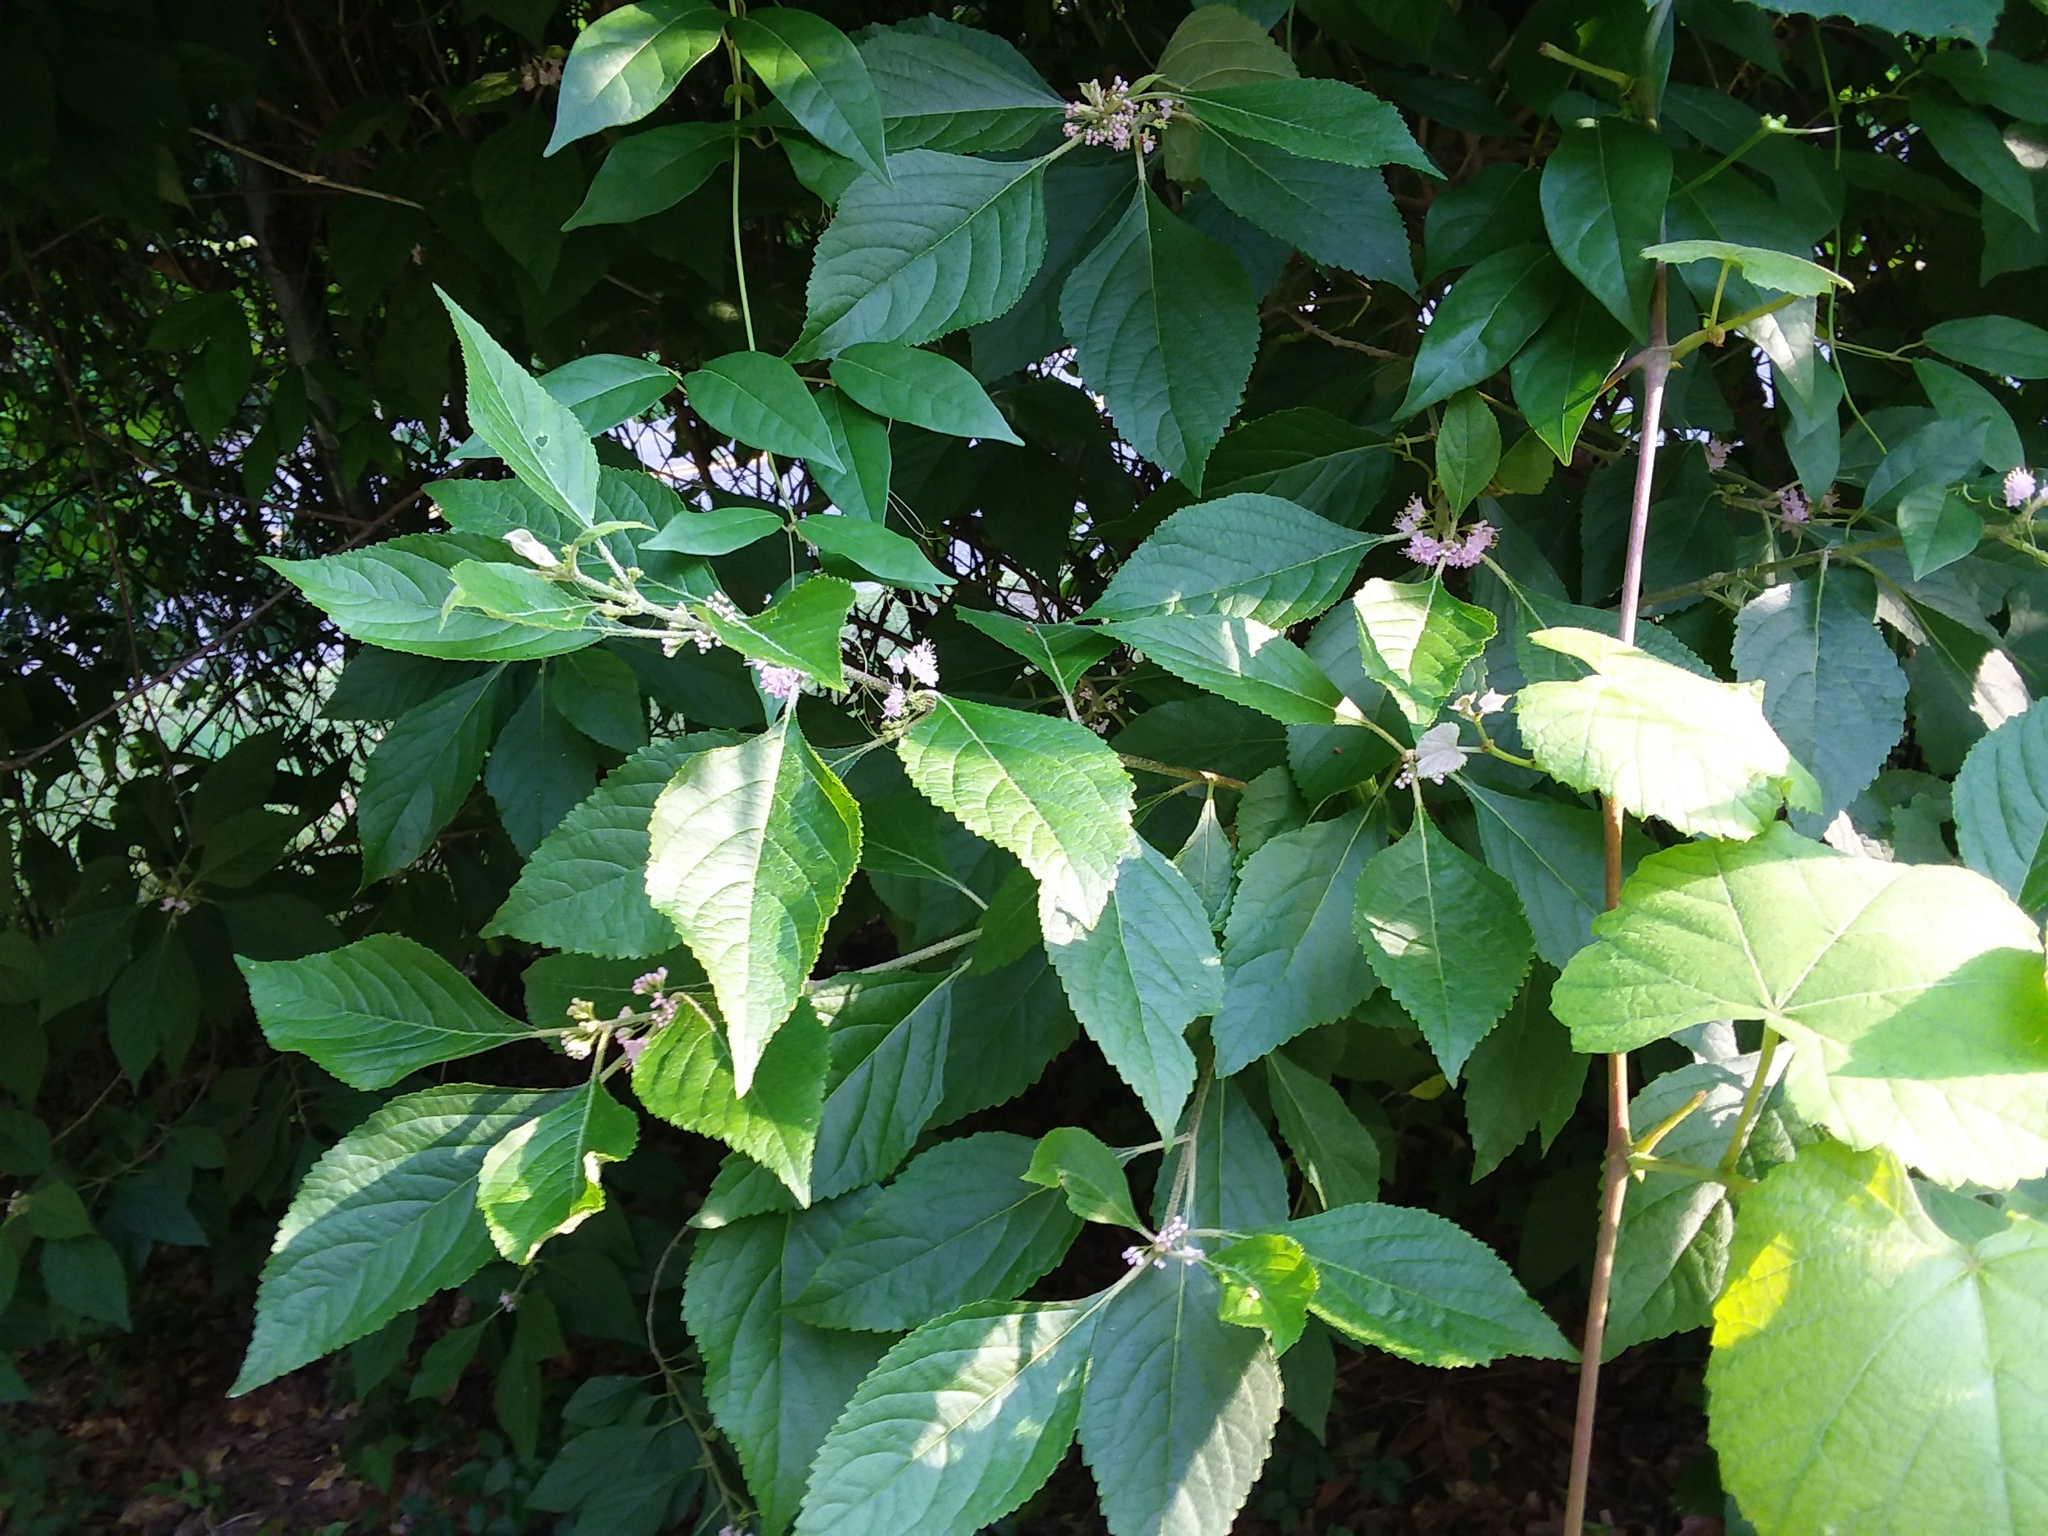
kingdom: Plantae
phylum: Tracheophyta
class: Magnoliopsida
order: Lamiales
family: Lamiaceae
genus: Callicarpa
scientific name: Callicarpa americana
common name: American beautyberry
